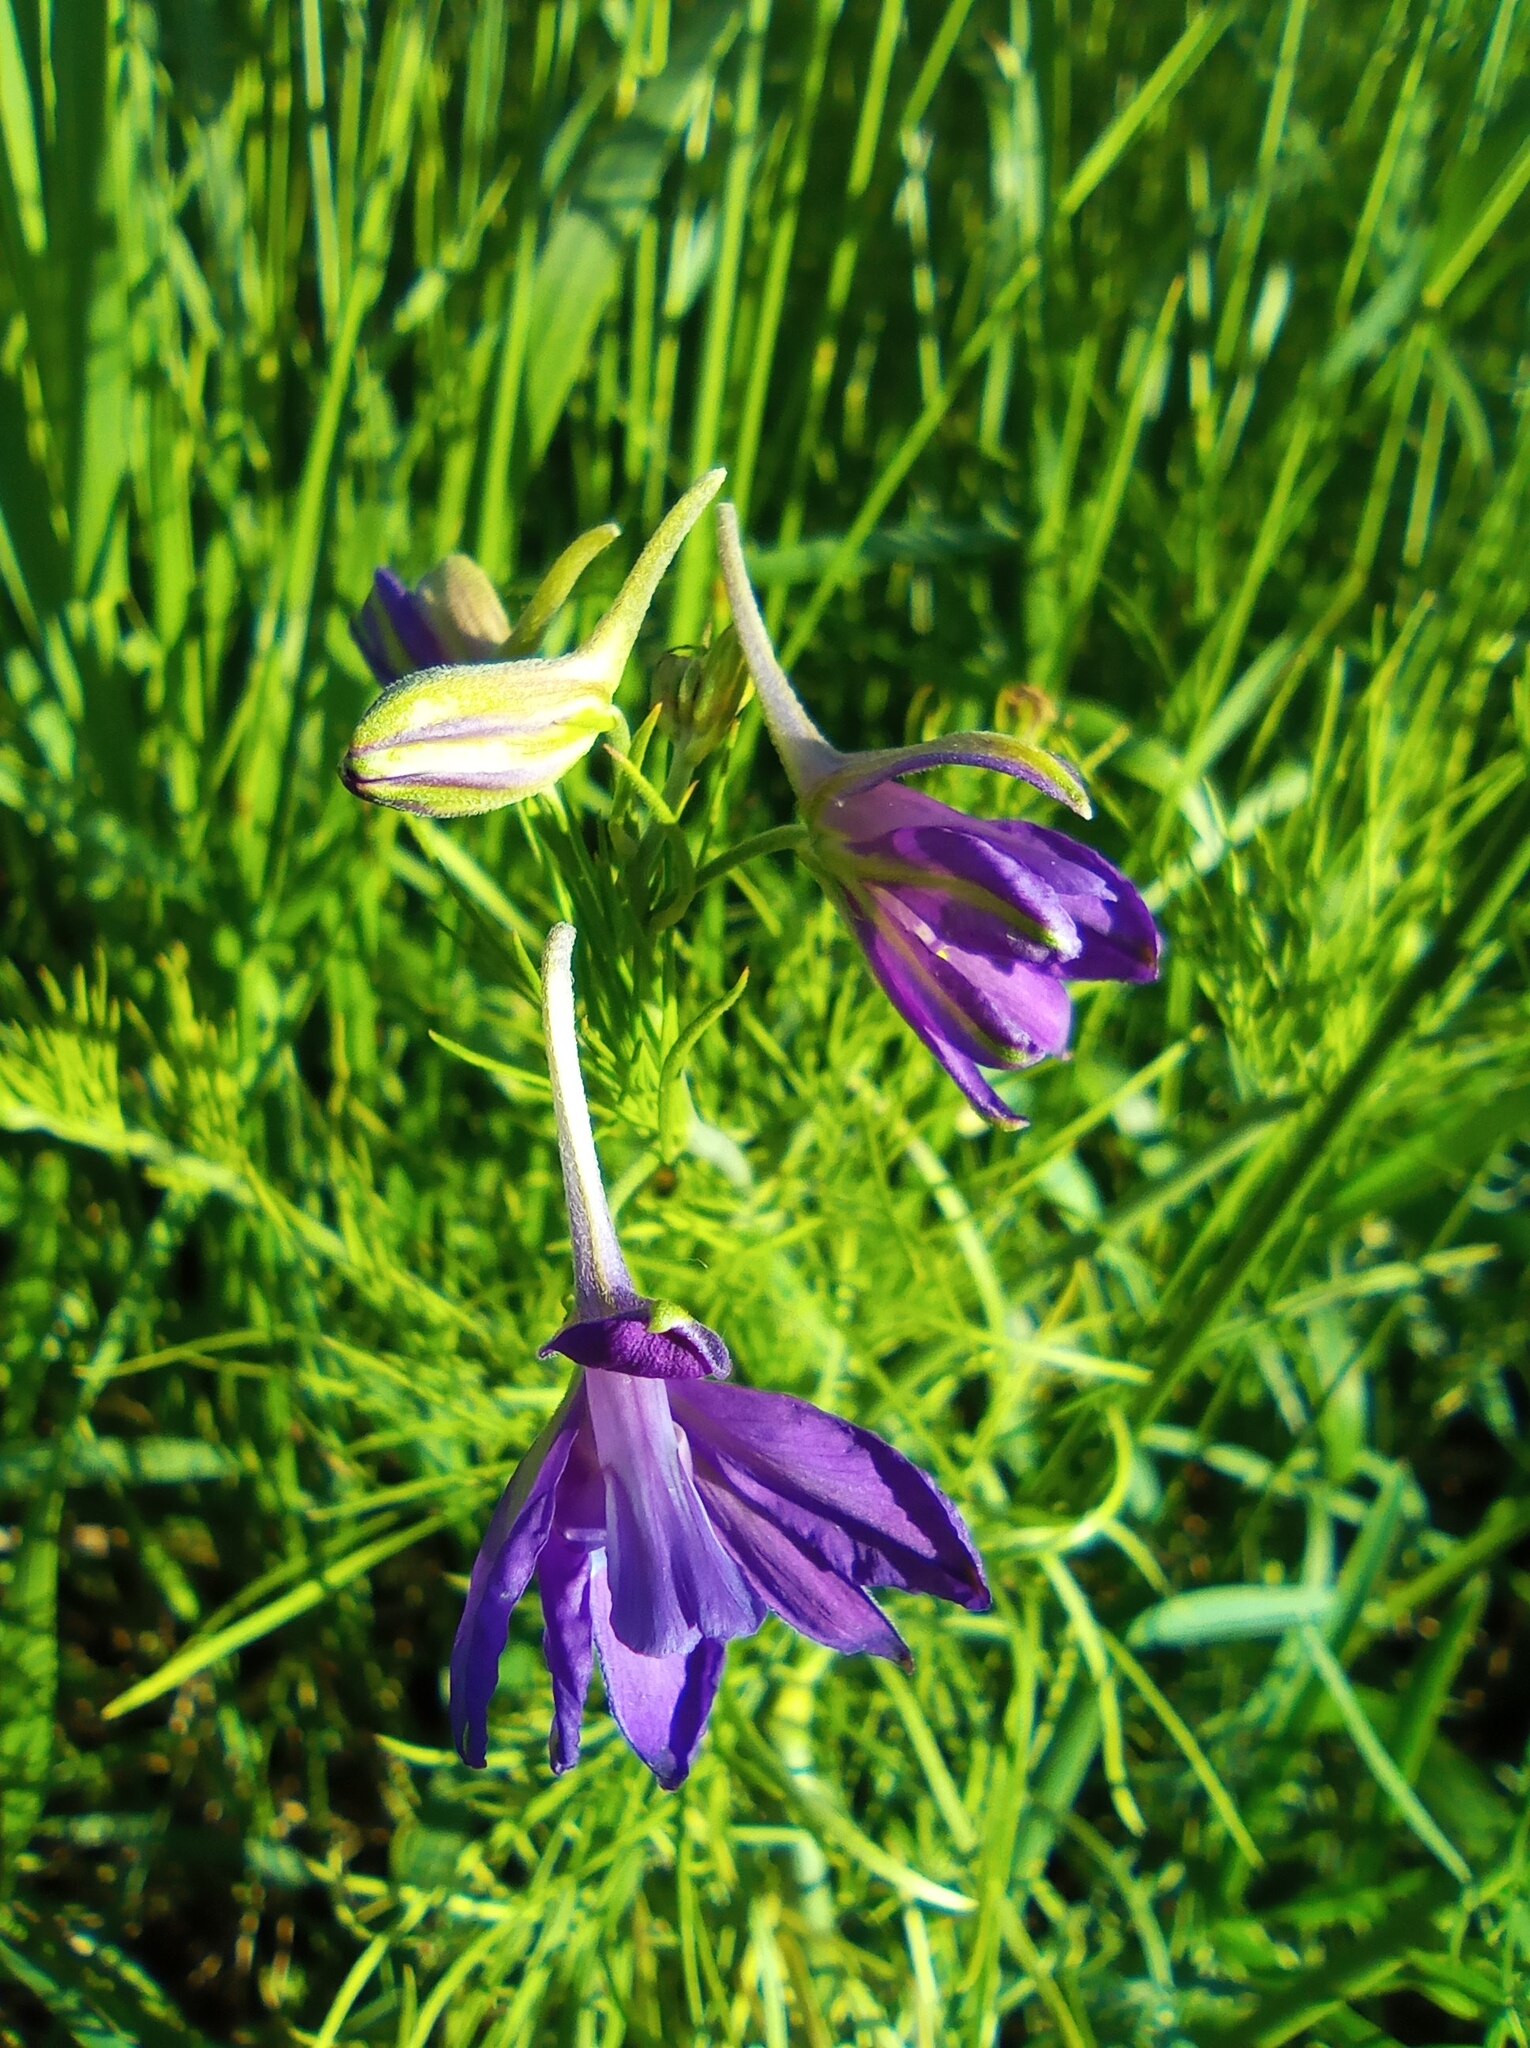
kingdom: Plantae
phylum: Tracheophyta
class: Magnoliopsida
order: Ranunculales
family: Ranunculaceae
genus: Delphinium
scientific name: Delphinium consolida
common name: Branching larkspur
